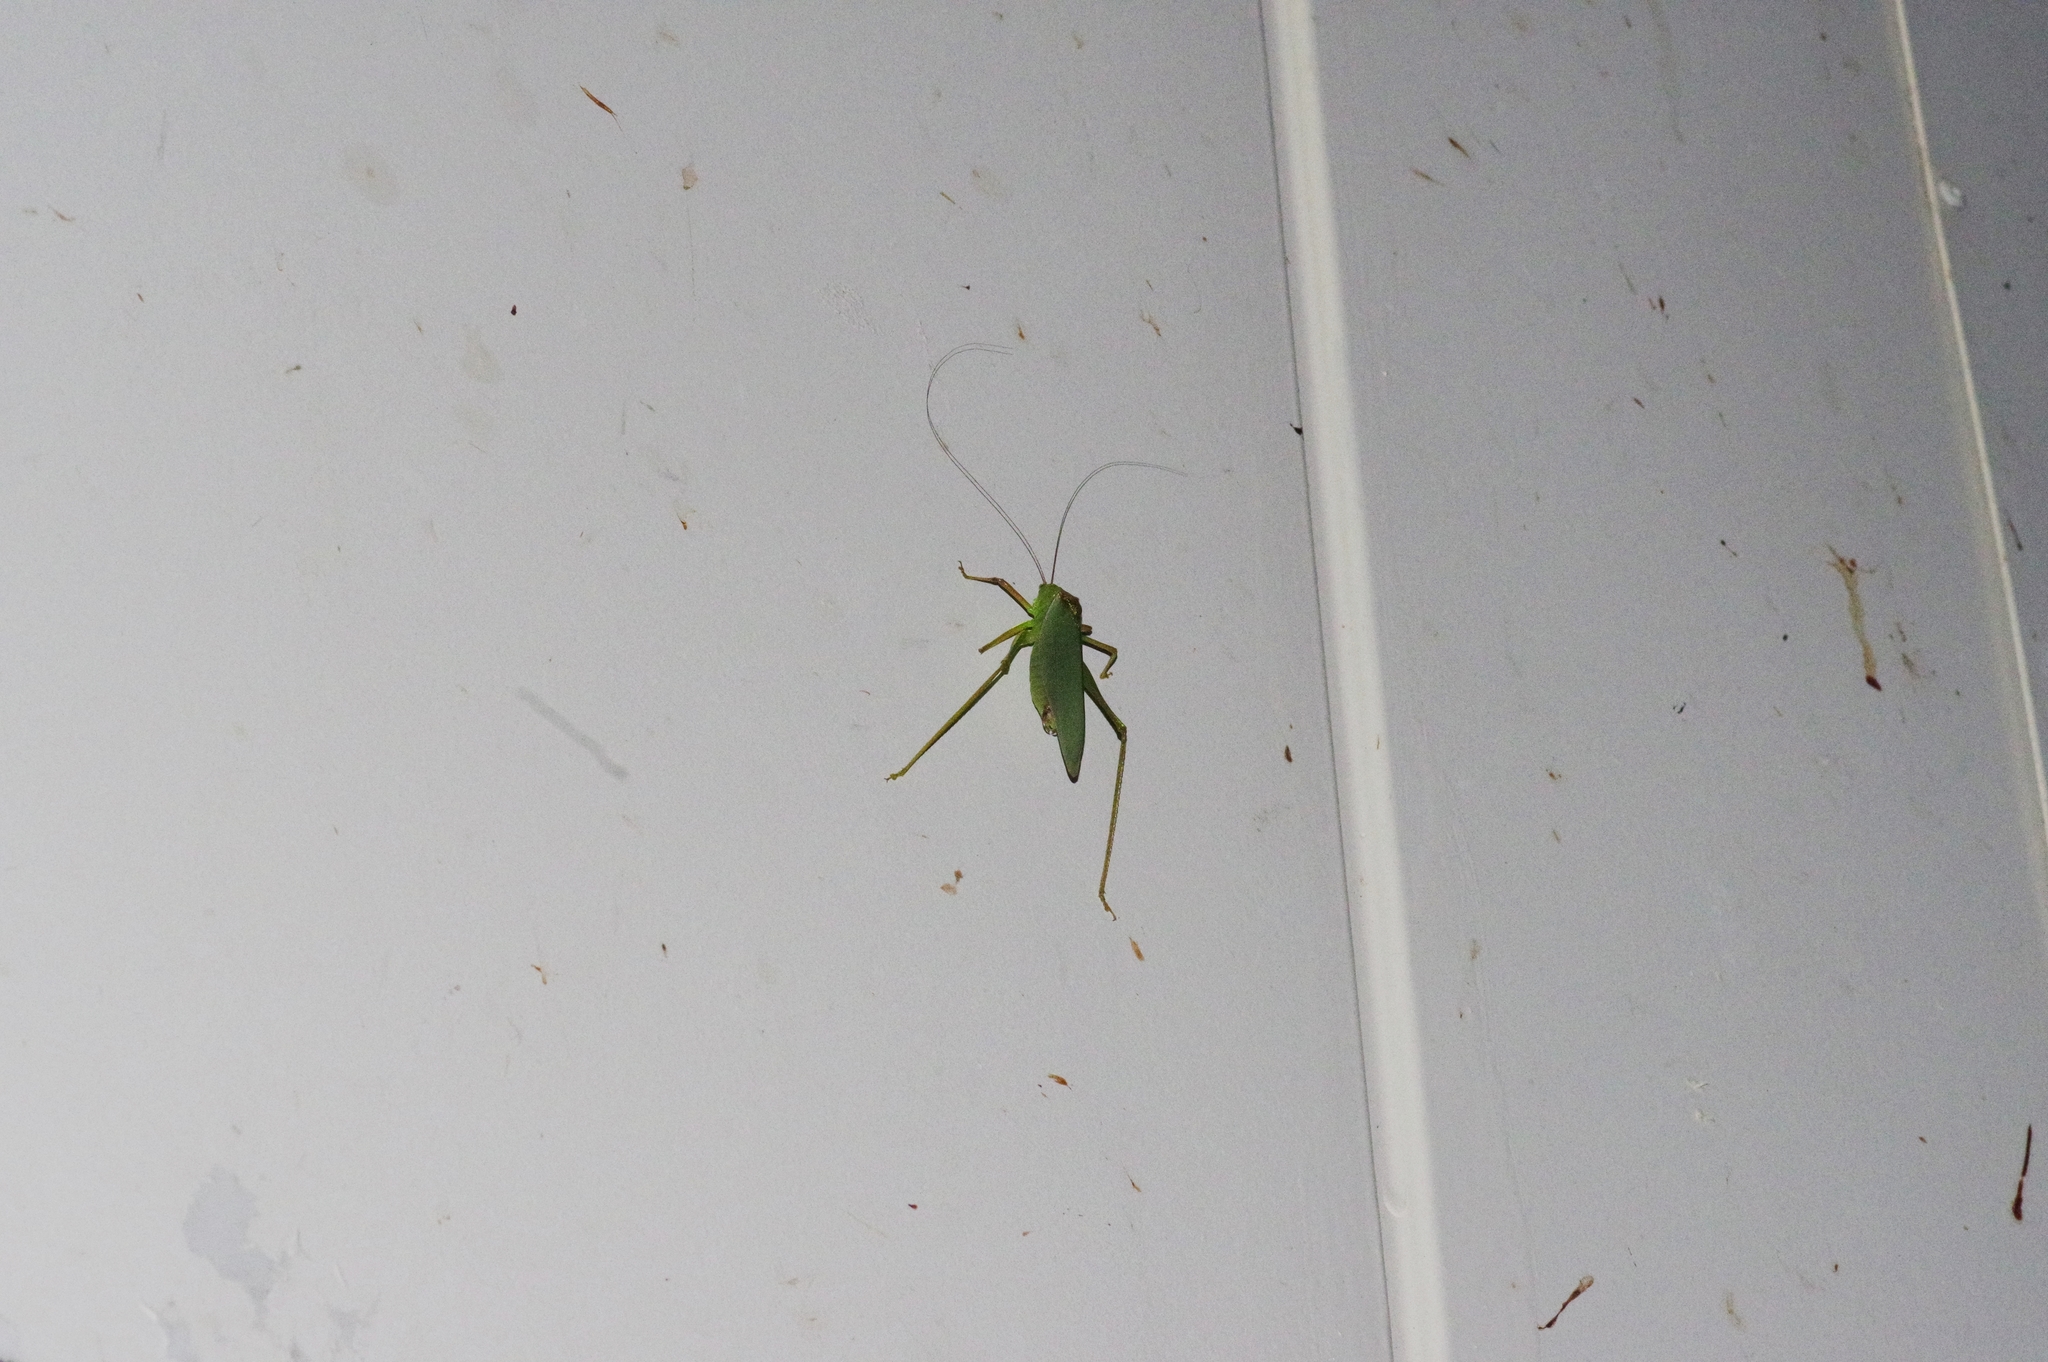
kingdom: Animalia
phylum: Arthropoda
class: Insecta
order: Orthoptera
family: Tettigoniidae
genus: Psyrana
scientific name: Psyrana ryukyuensis
